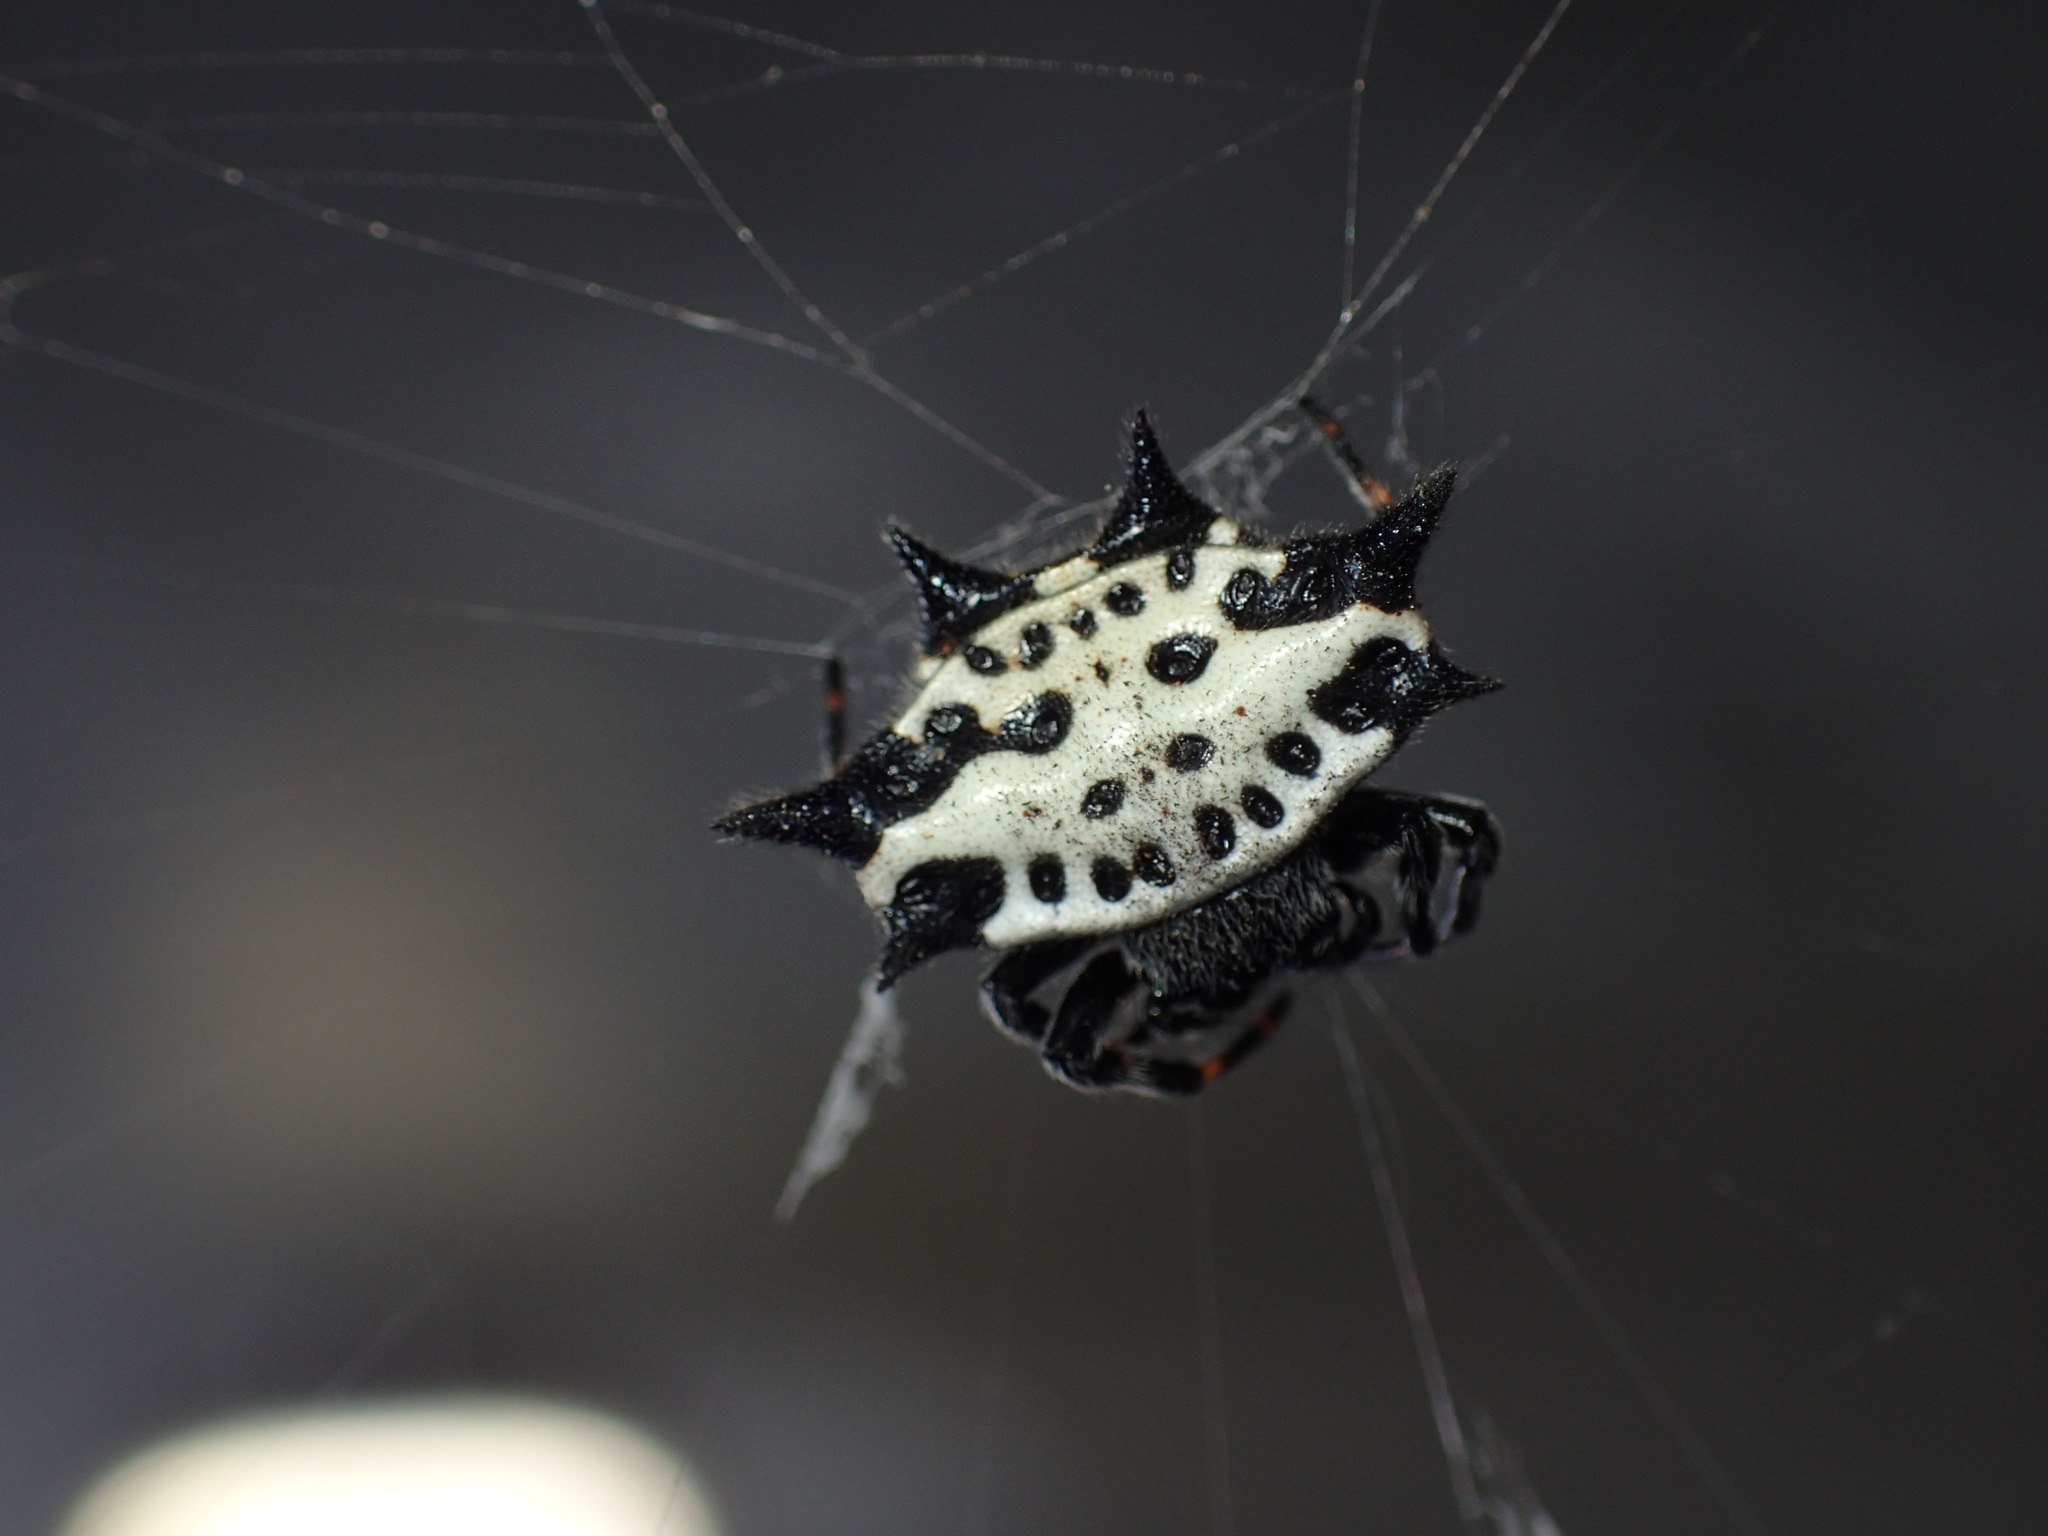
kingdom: Animalia
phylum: Arthropoda
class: Arachnida
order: Araneae
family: Araneidae
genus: Gasteracantha
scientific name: Gasteracantha cancriformis
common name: Orb weavers
